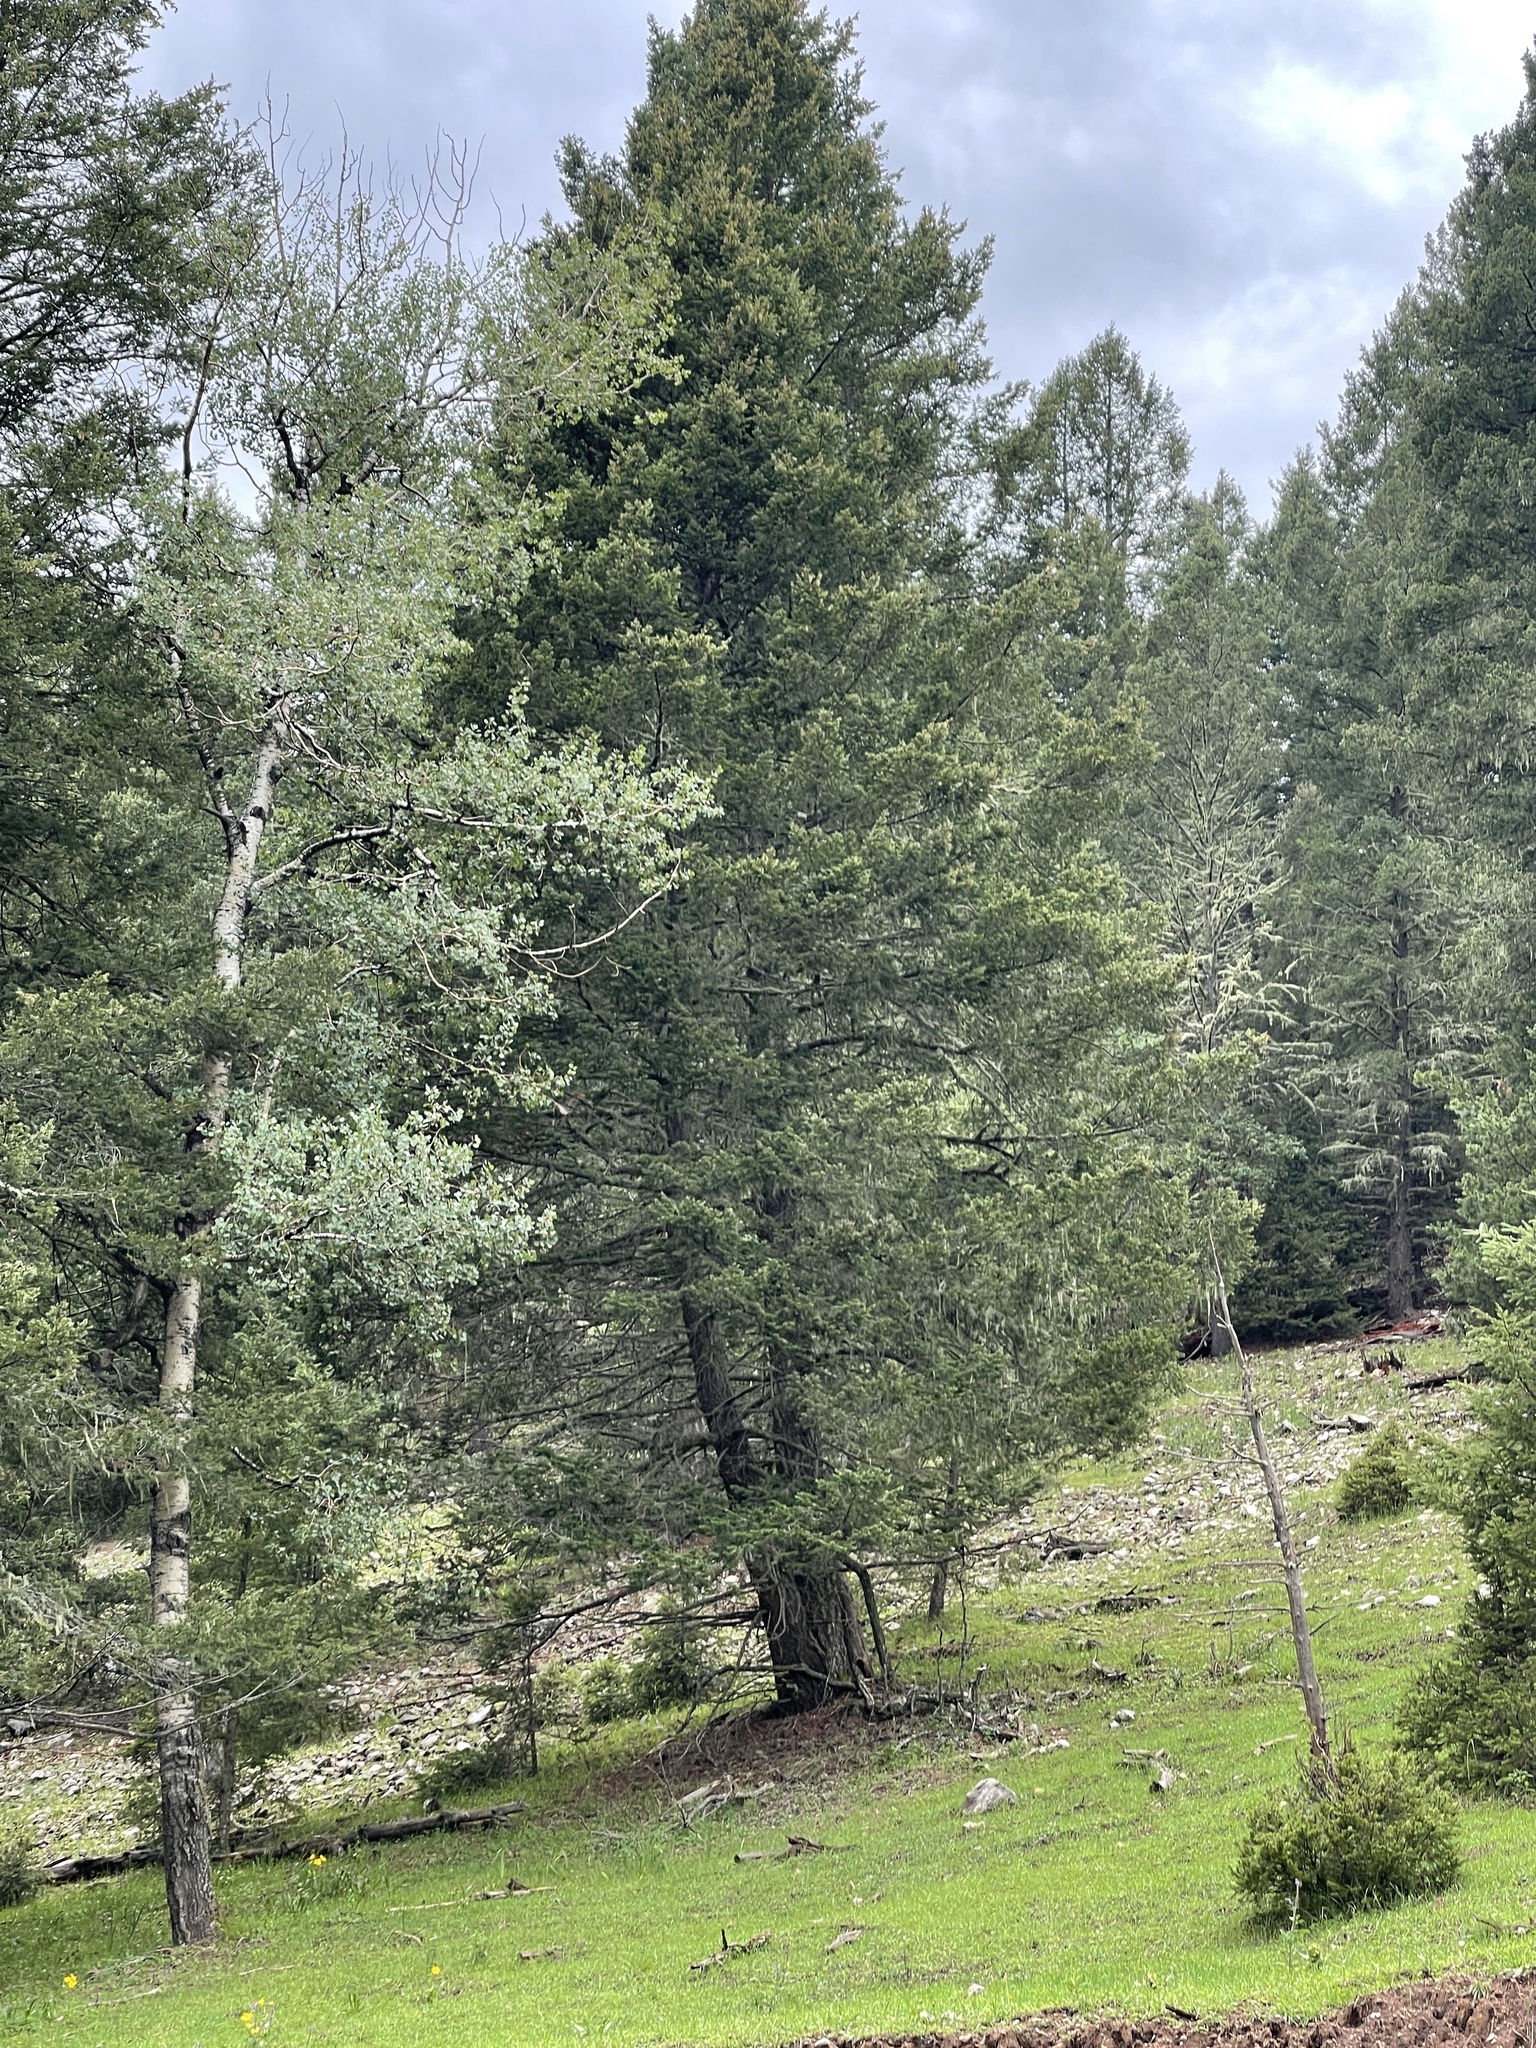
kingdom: Plantae
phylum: Tracheophyta
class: Magnoliopsida
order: Malpighiales
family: Salicaceae
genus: Populus
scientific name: Populus tremuloides
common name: Quaking aspen
